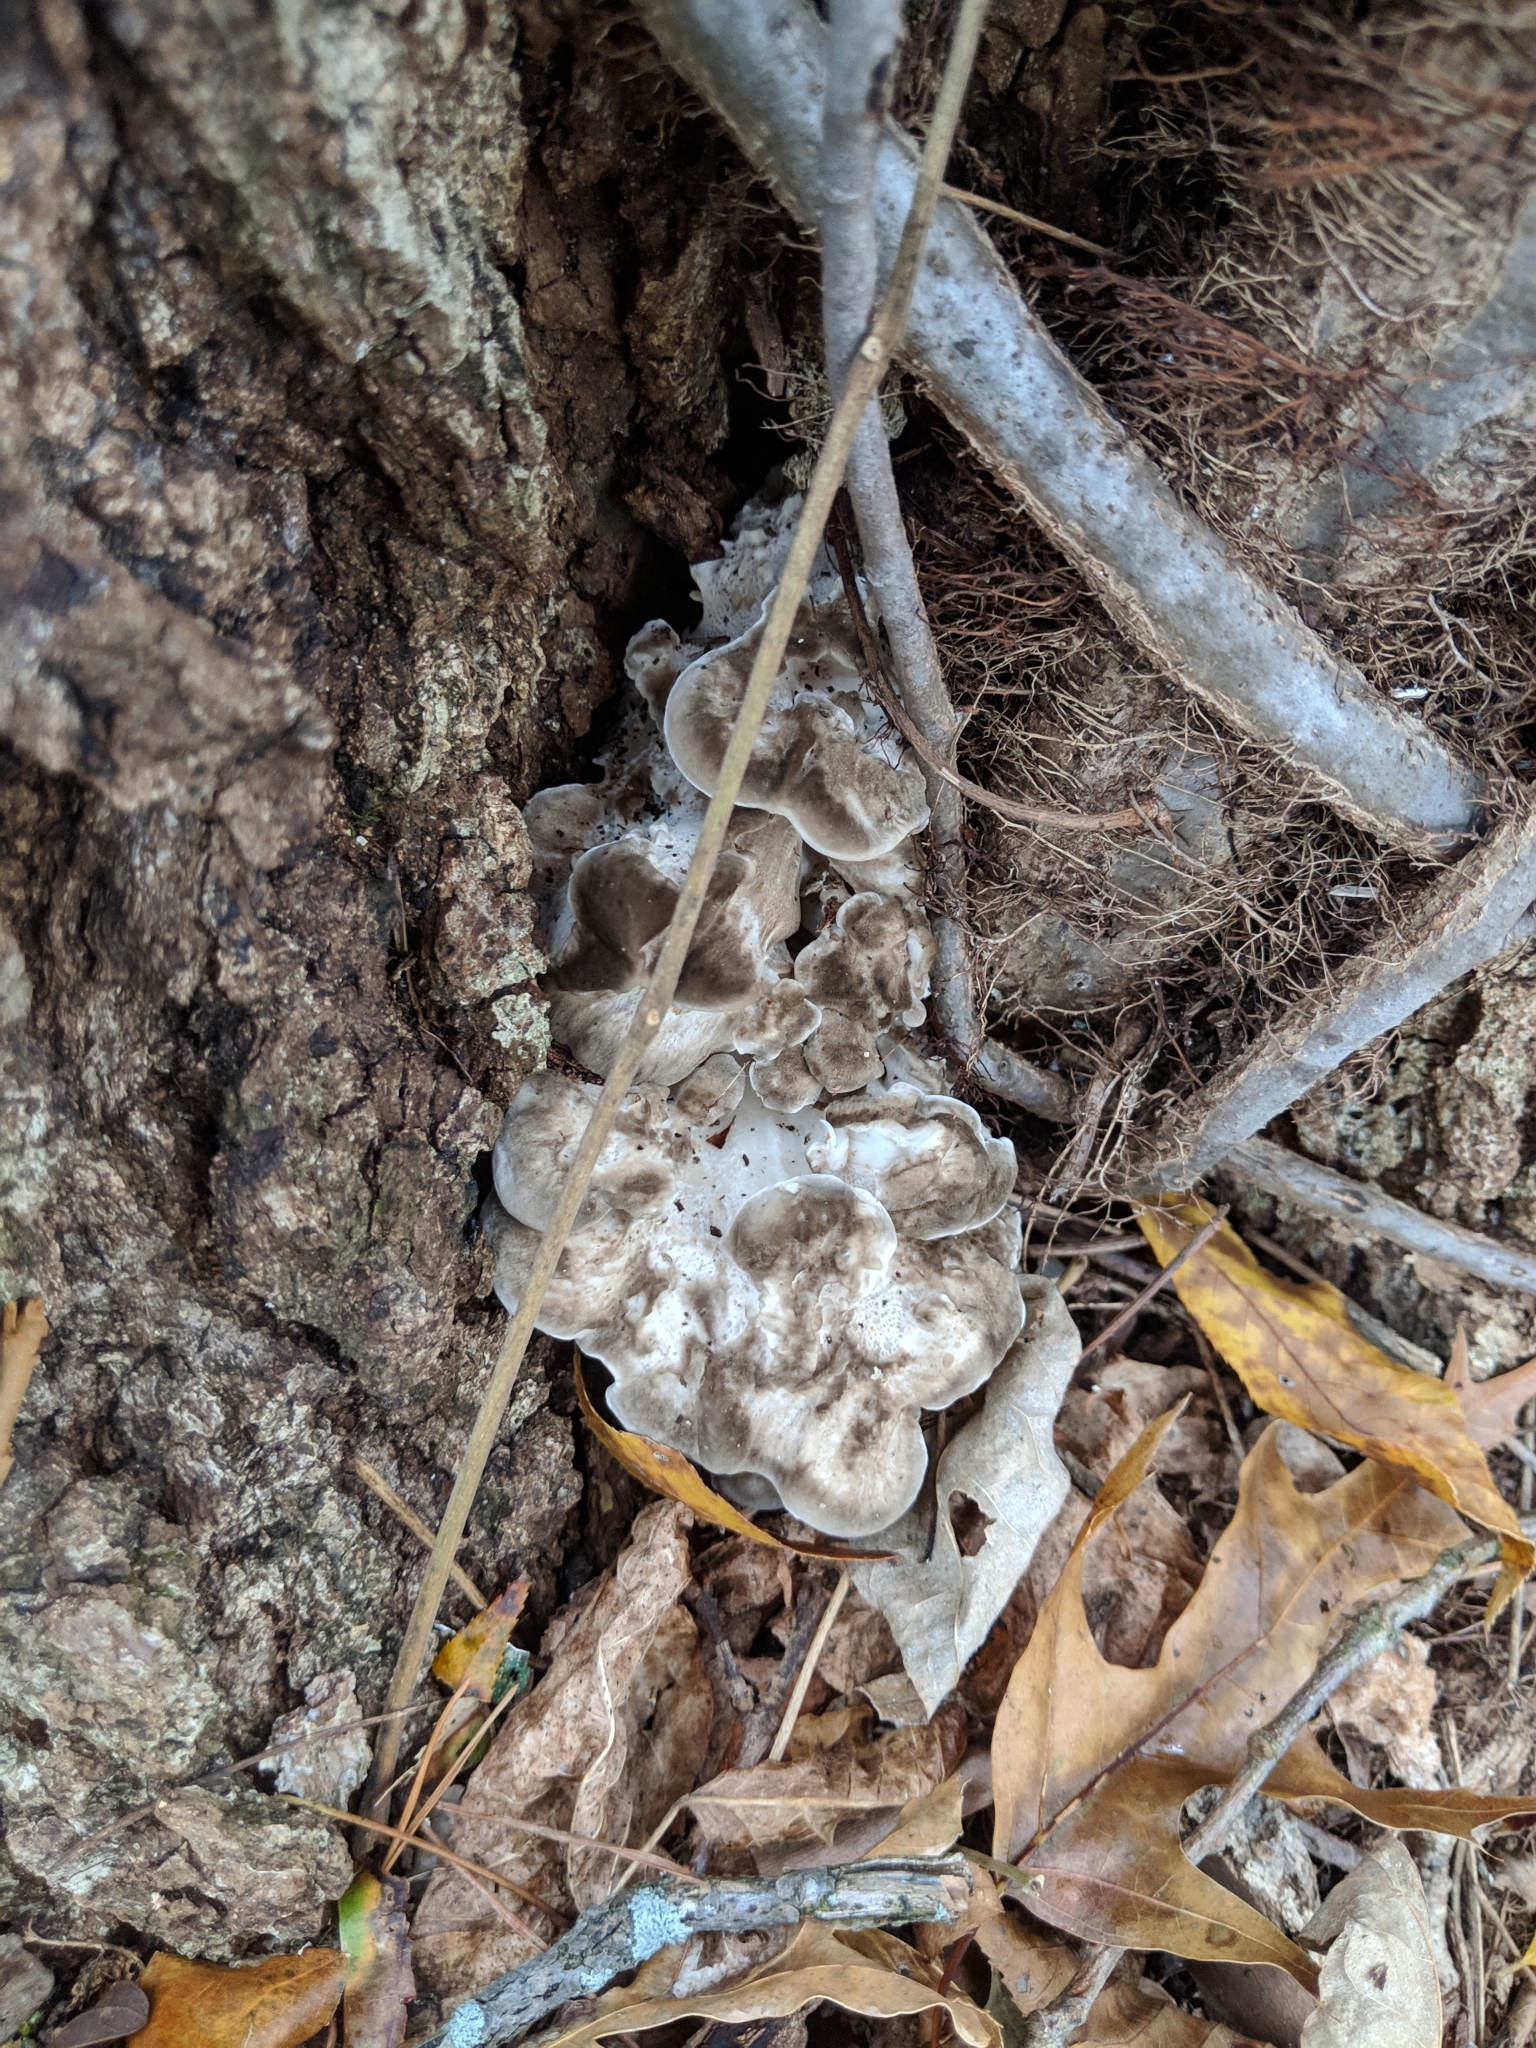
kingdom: Fungi
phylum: Basidiomycota
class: Agaricomycetes
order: Polyporales
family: Grifolaceae
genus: Grifola
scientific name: Grifola frondosa
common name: Hen of the woods
